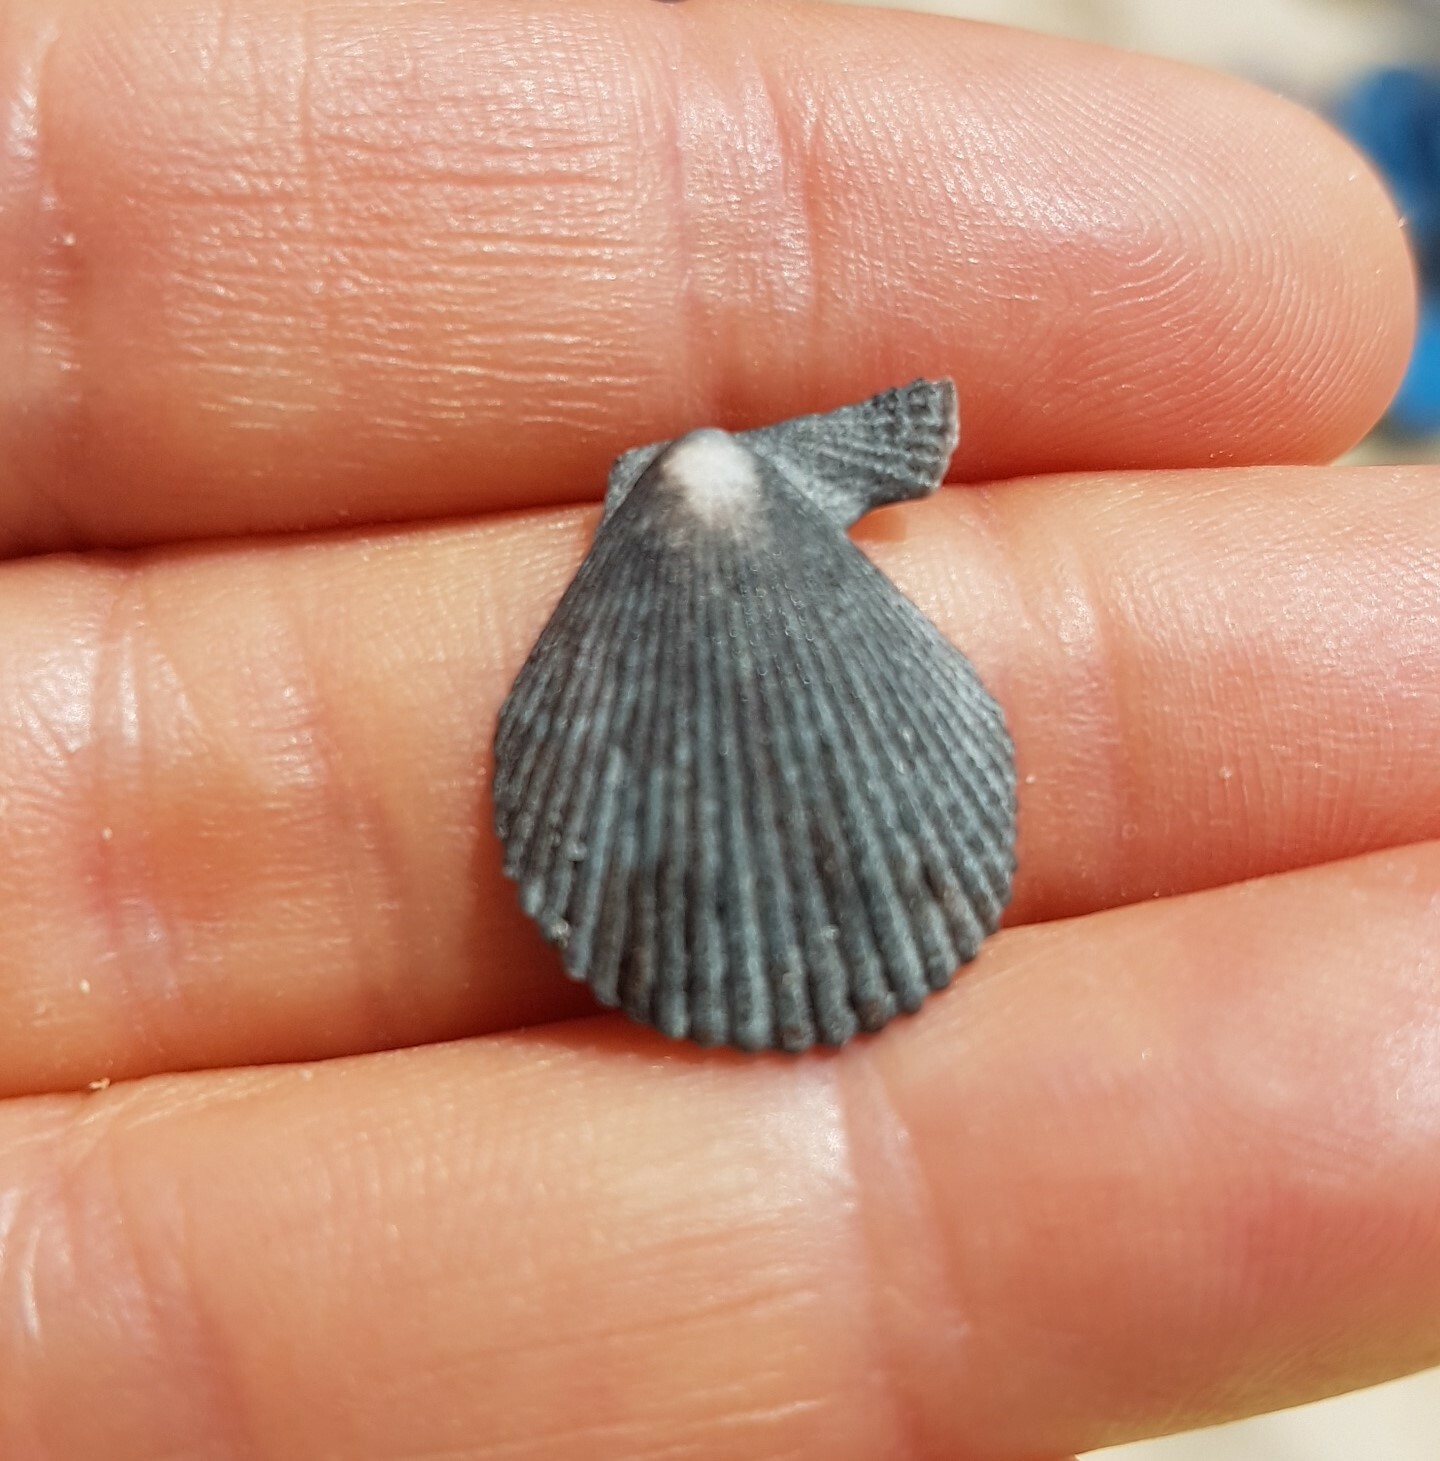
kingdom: Animalia
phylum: Mollusca
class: Bivalvia
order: Pectinida
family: Pectinidae
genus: Mimachlamys
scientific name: Mimachlamys varia
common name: Variegated scallop
